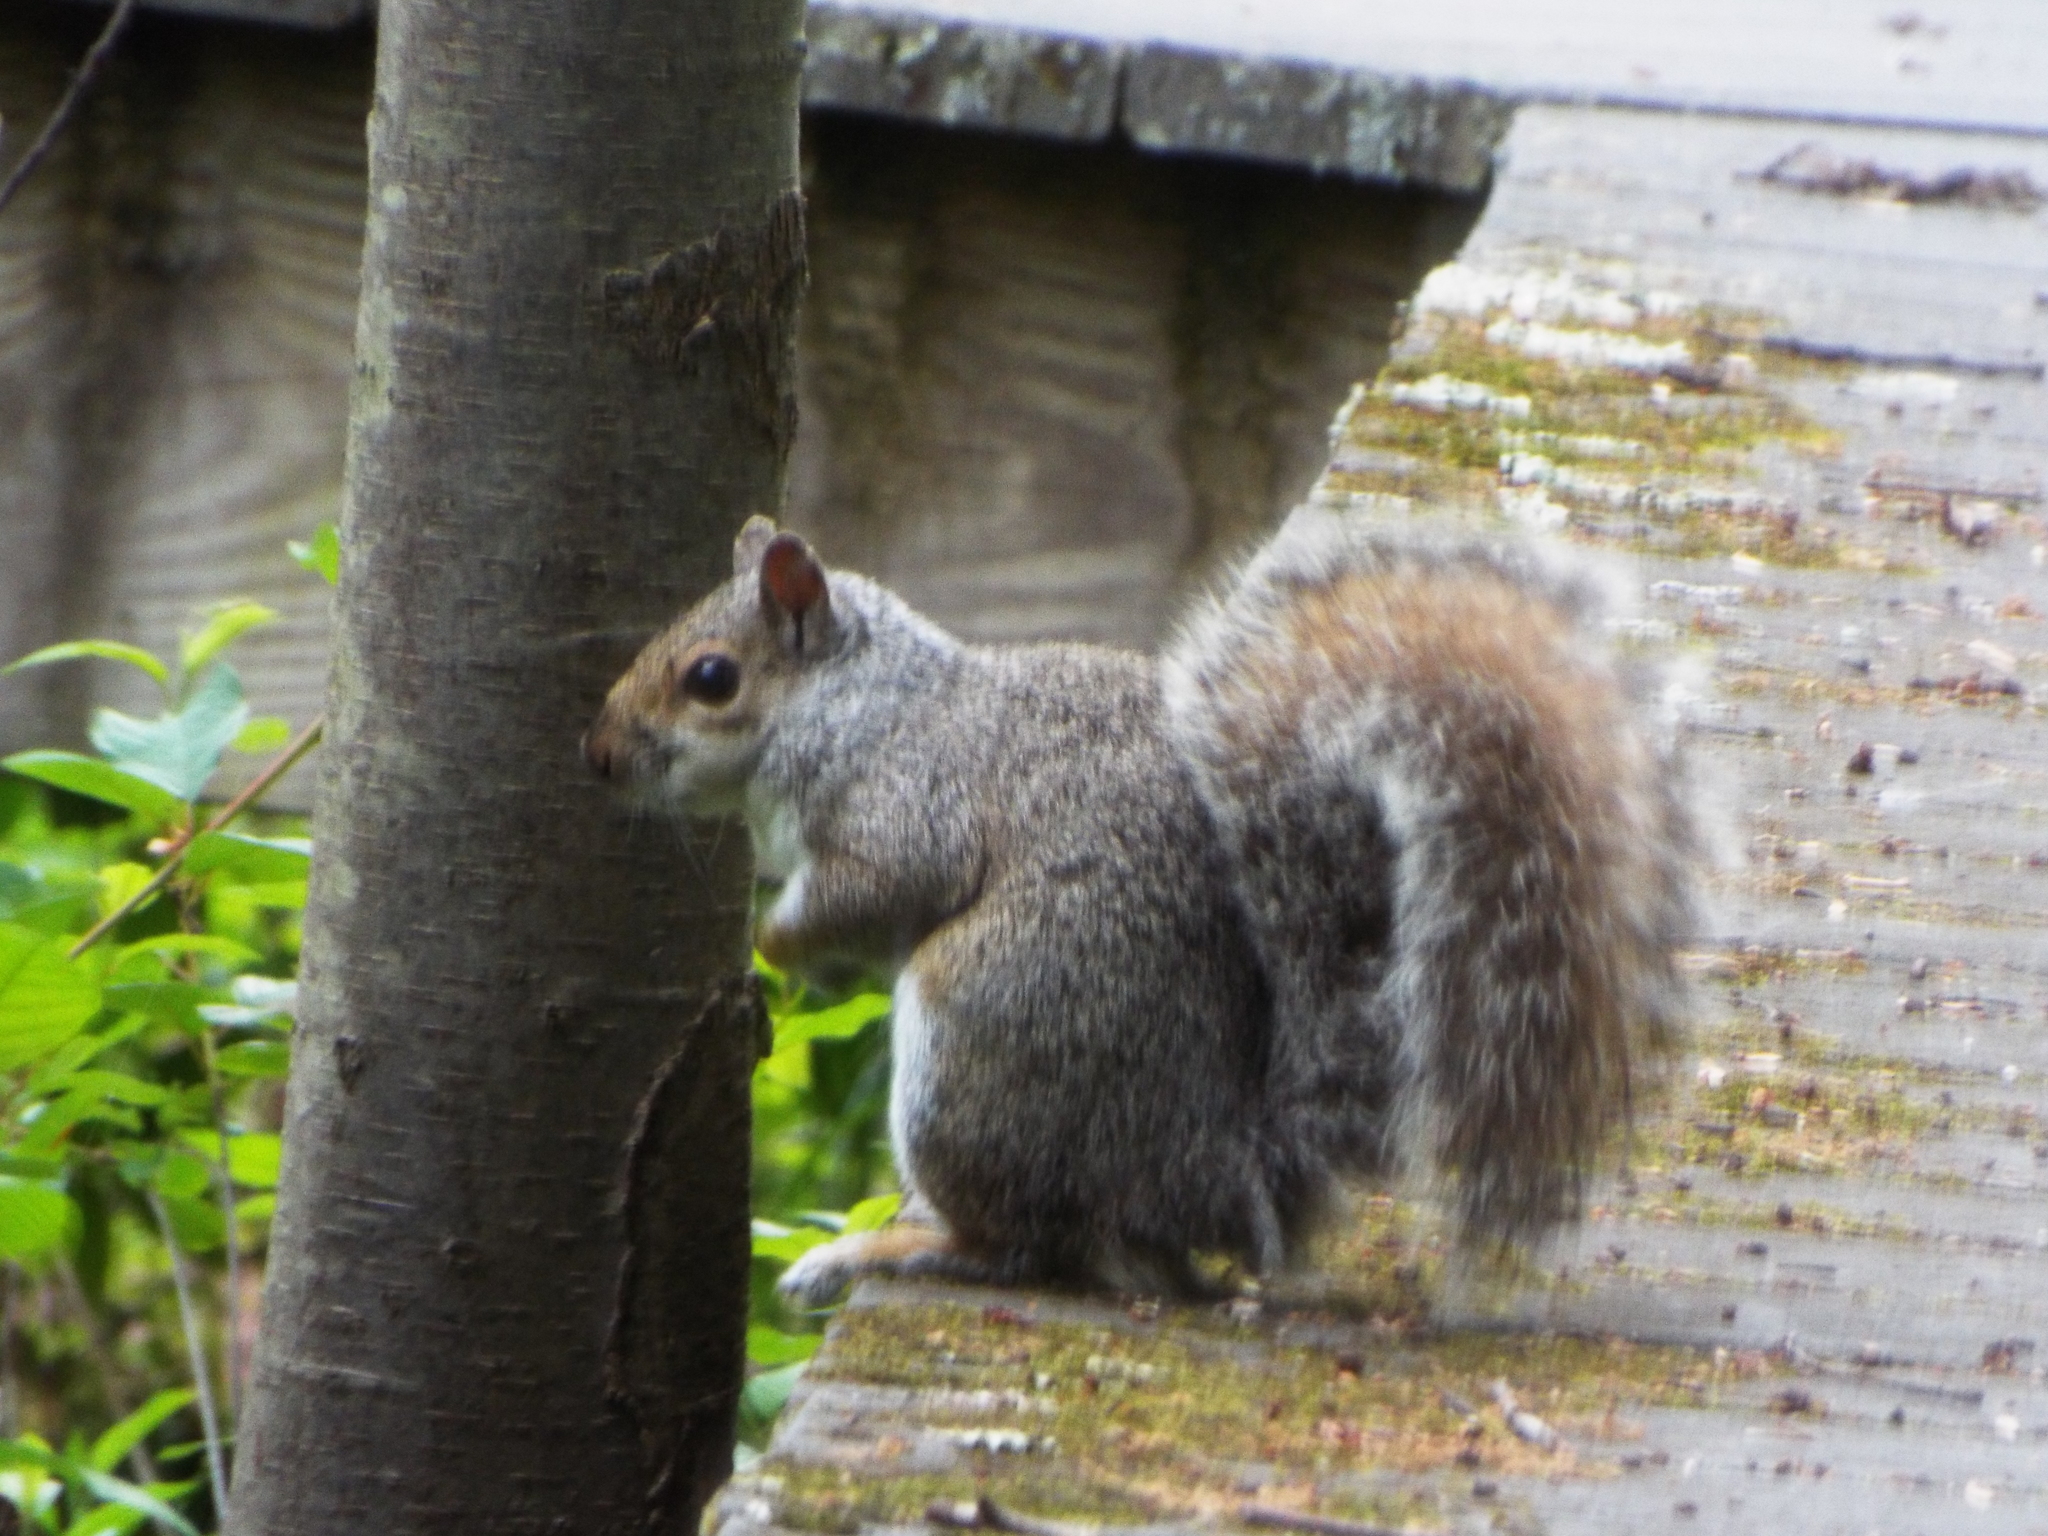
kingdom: Animalia
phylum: Chordata
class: Mammalia
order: Rodentia
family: Sciuridae
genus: Sciurus
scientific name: Sciurus carolinensis
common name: Eastern gray squirrel
